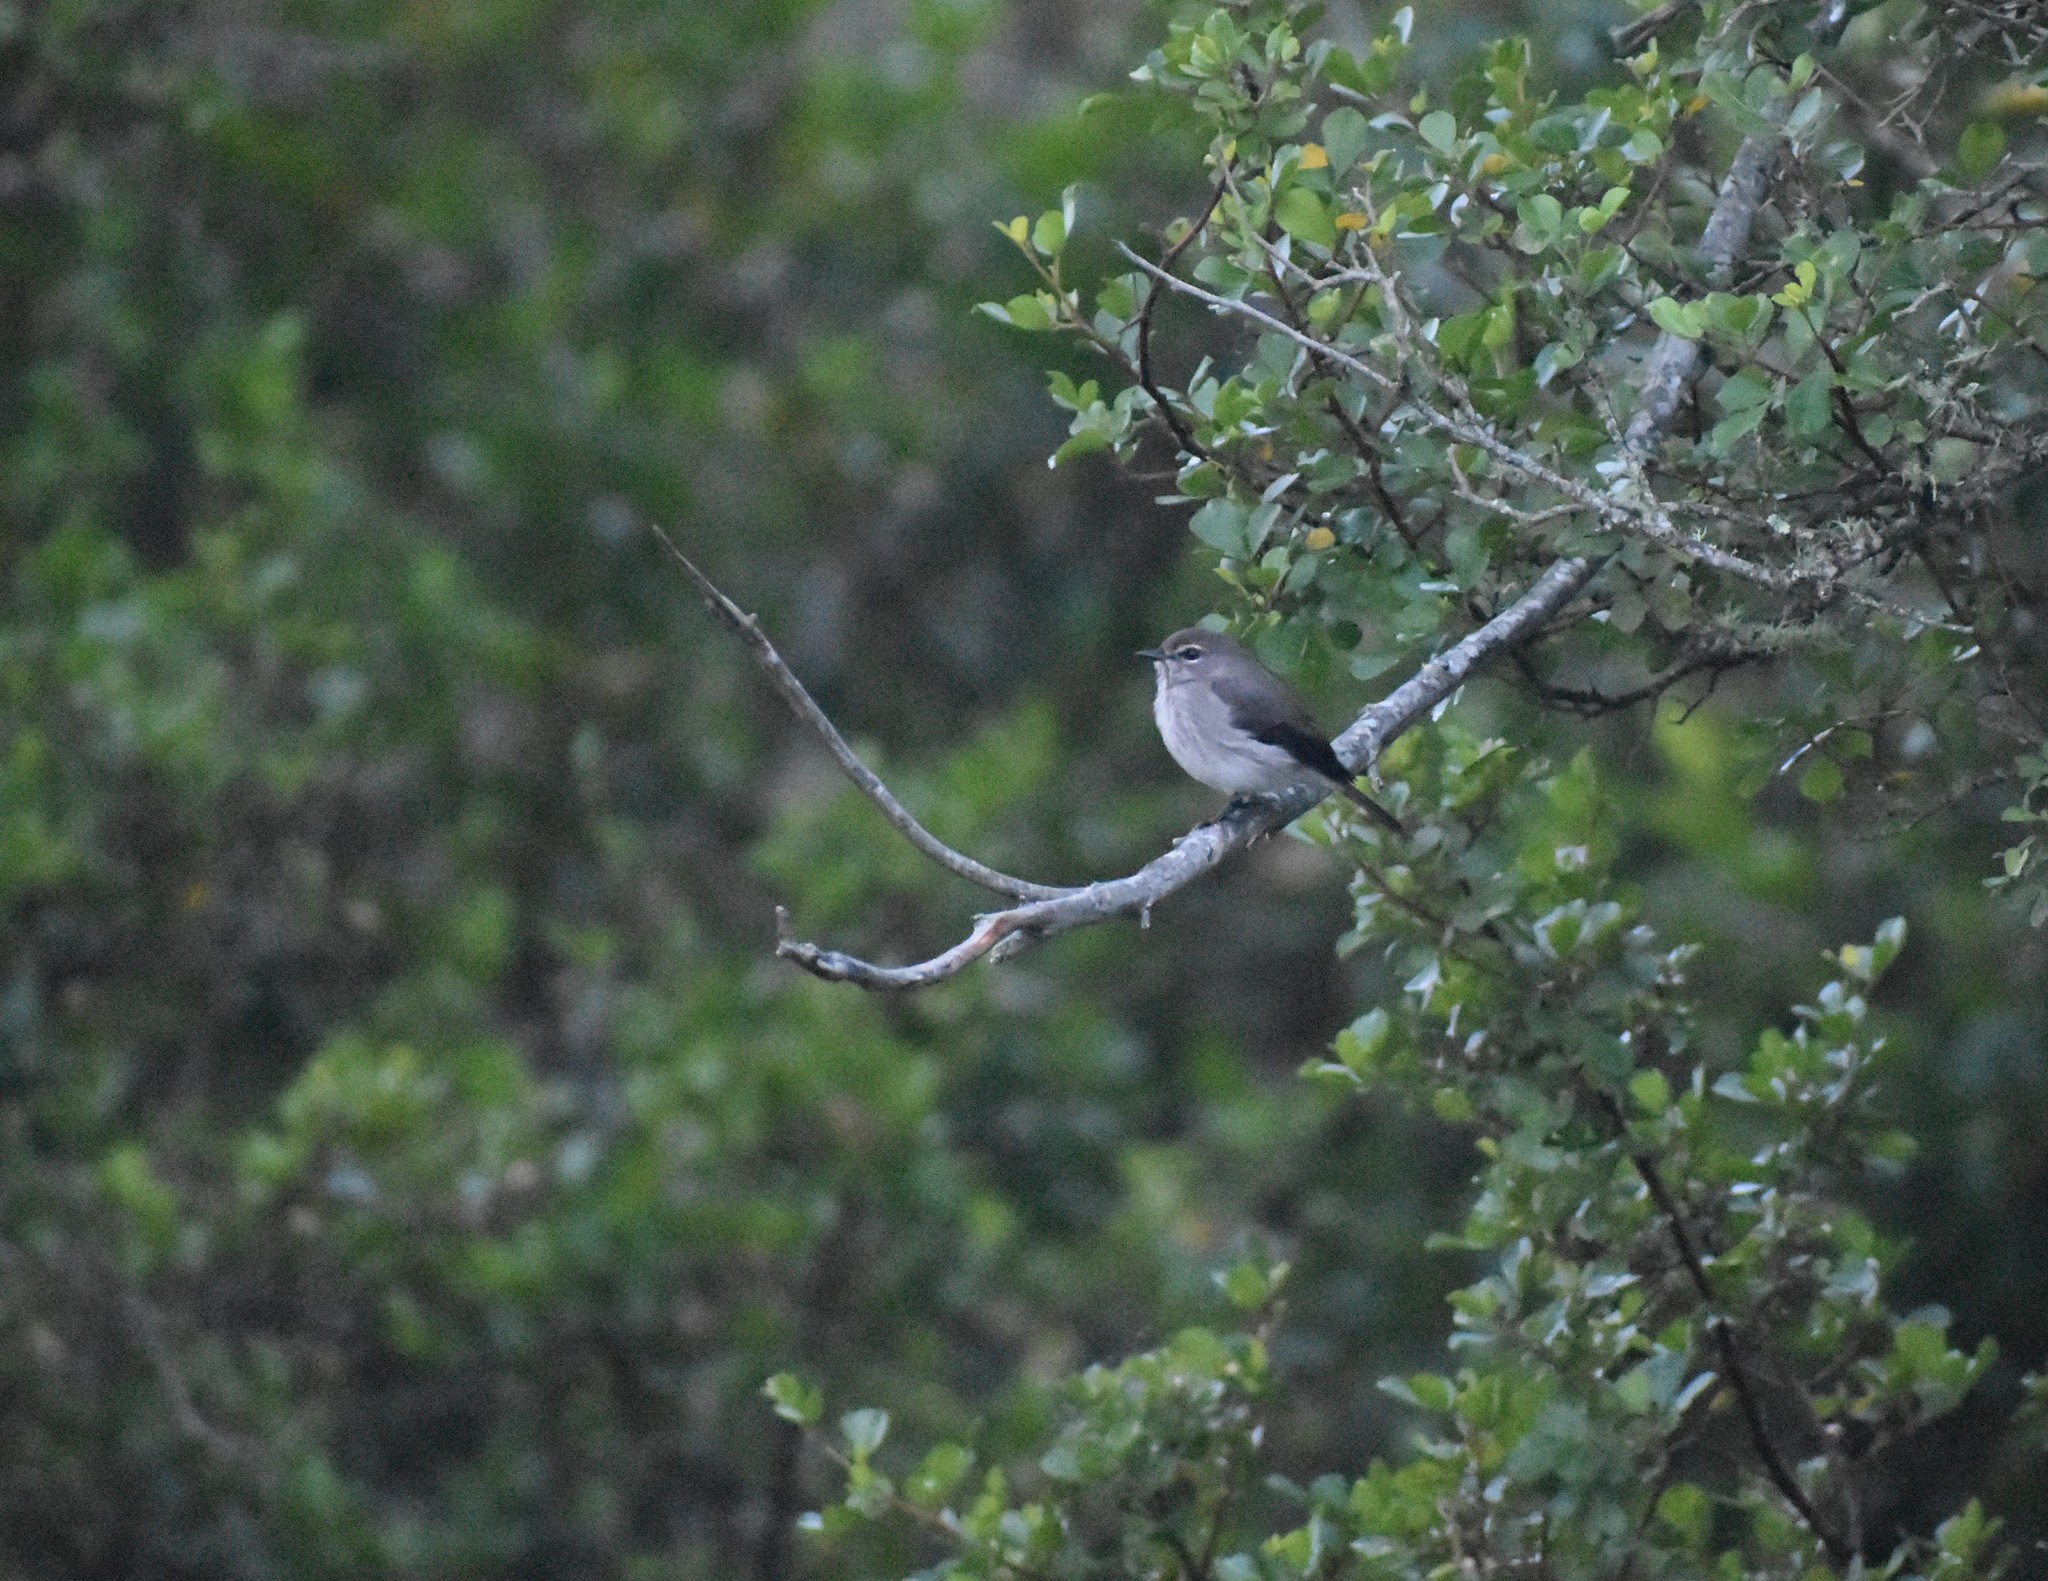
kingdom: Animalia
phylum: Chordata
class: Aves
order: Passeriformes
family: Muscicapidae
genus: Muscicapa
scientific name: Muscicapa adusta
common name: African dusky flycatcher
